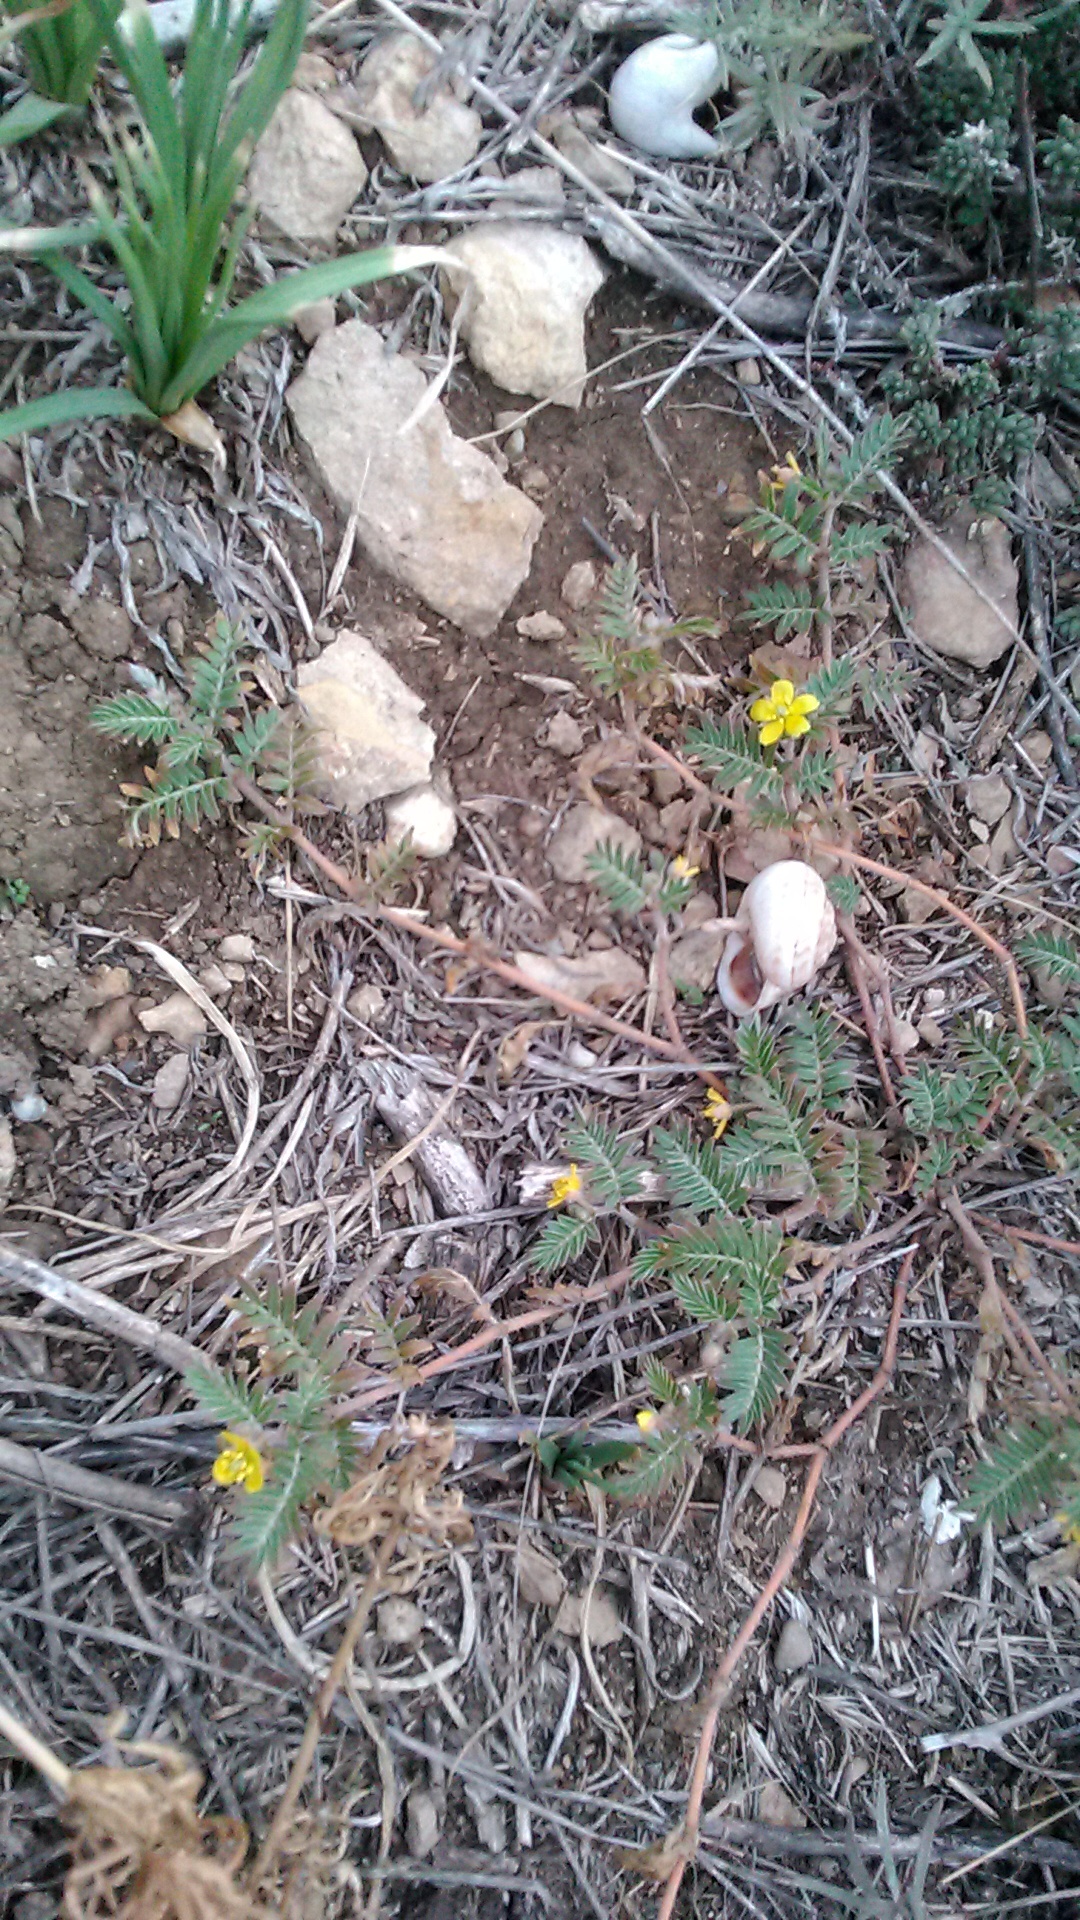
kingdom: Plantae
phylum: Tracheophyta
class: Magnoliopsida
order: Zygophyllales
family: Zygophyllaceae
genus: Tribulus
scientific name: Tribulus terrestris
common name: Puncturevine
